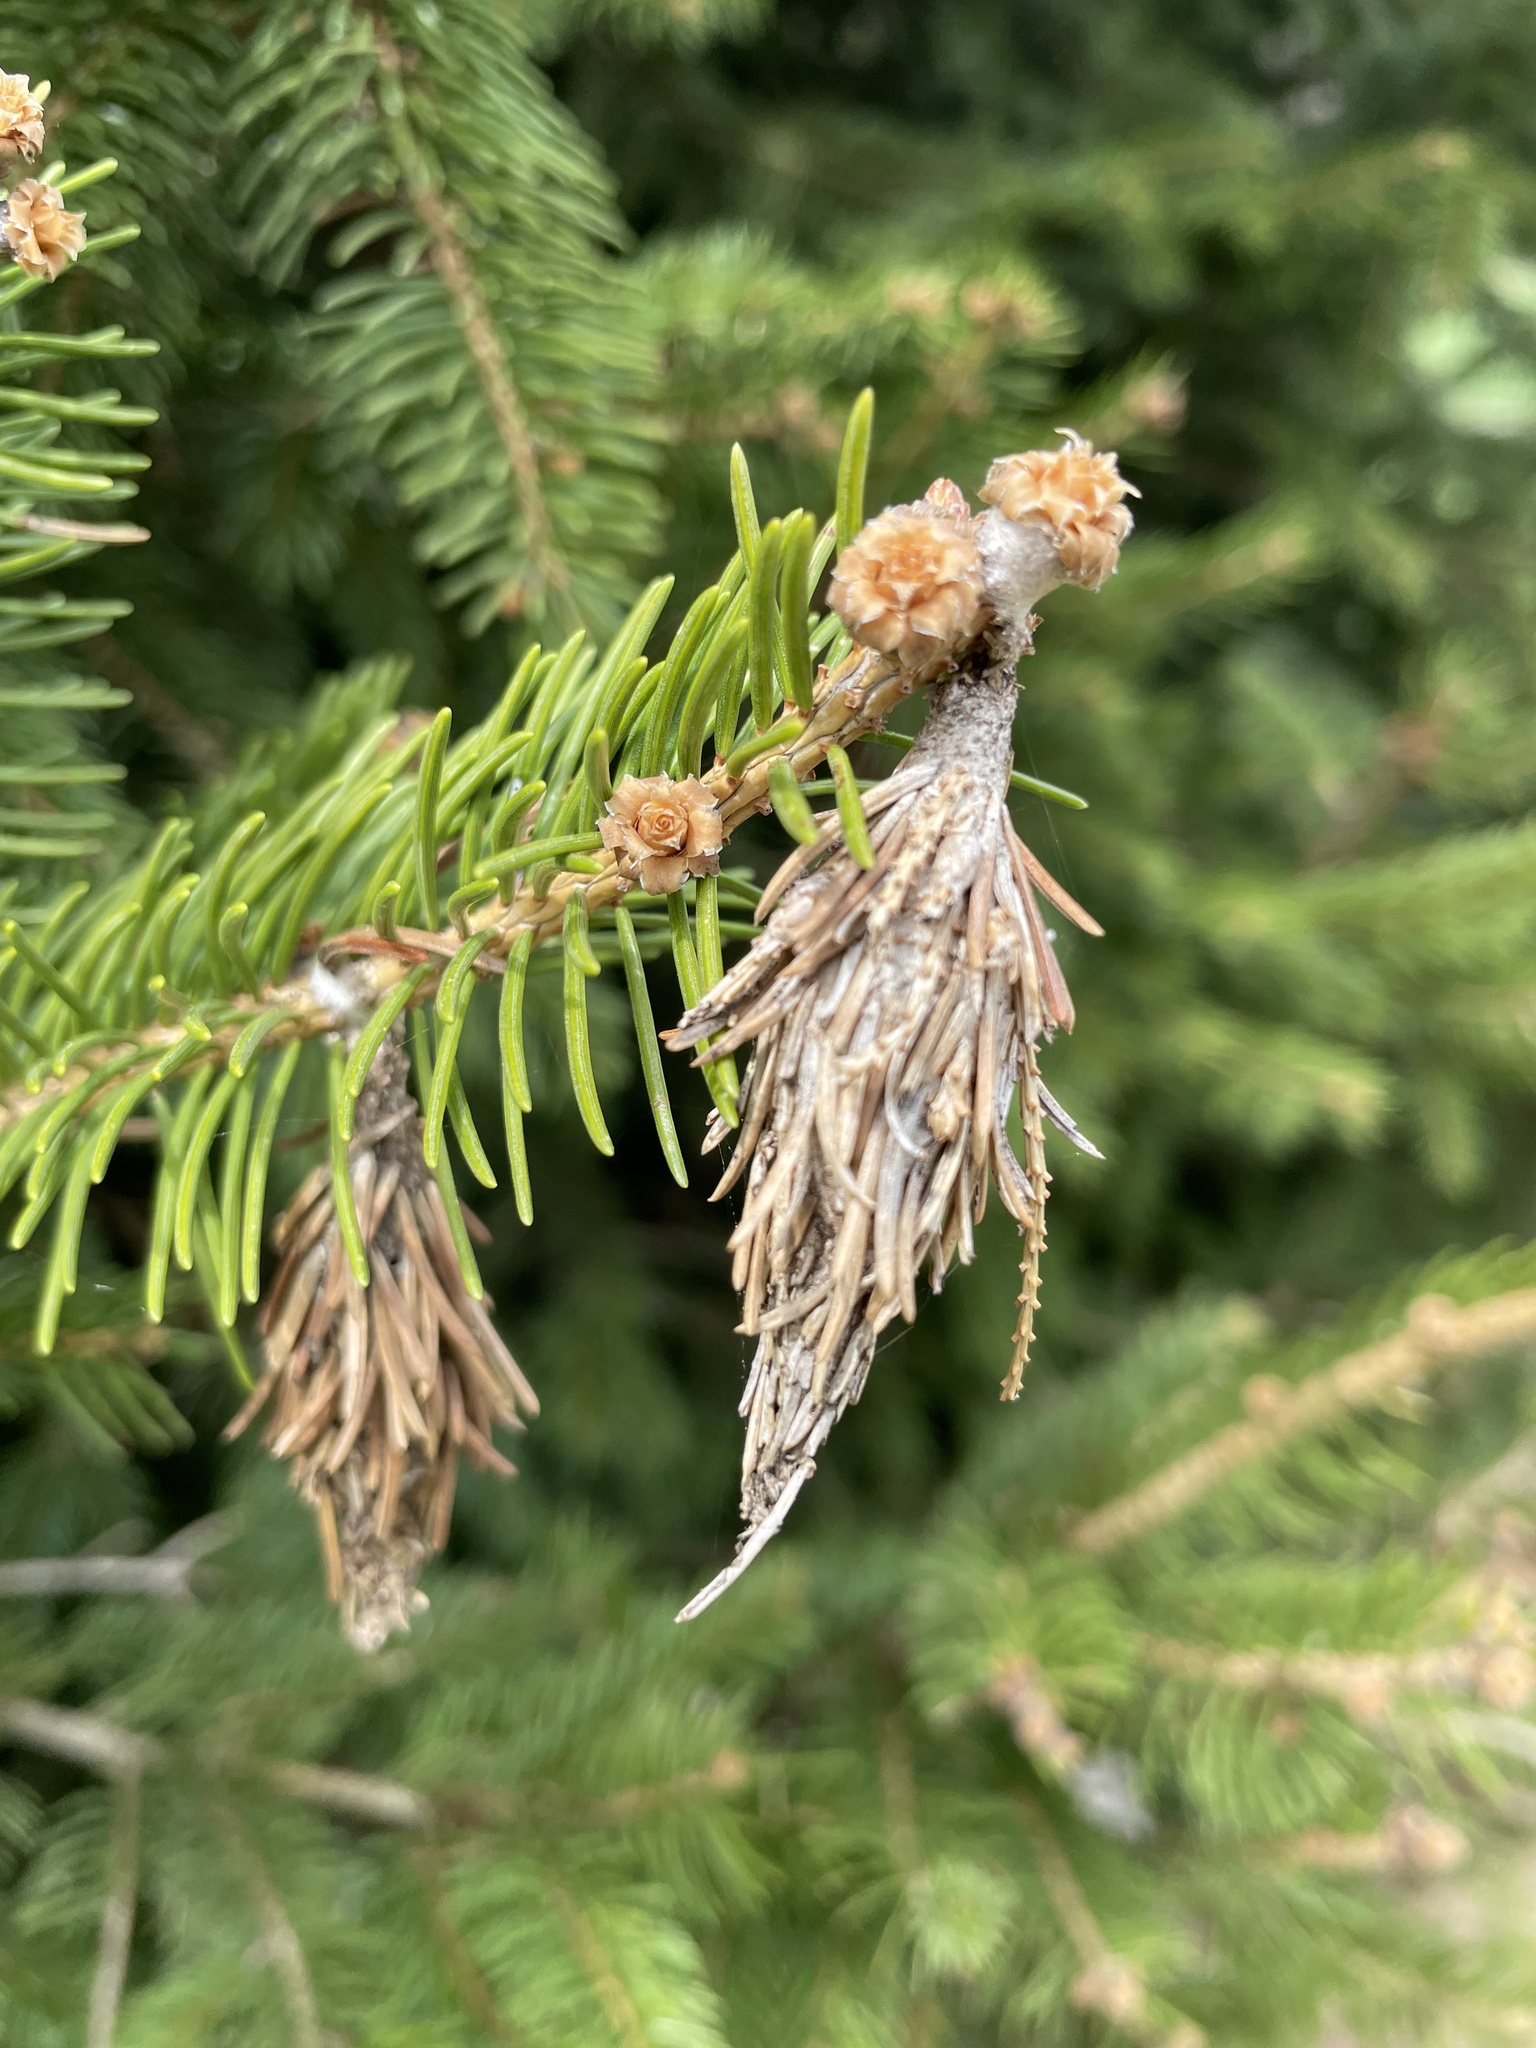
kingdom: Animalia
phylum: Arthropoda
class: Insecta
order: Lepidoptera
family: Psychidae
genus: Thyridopteryx
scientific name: Thyridopteryx ephemeraeformis
